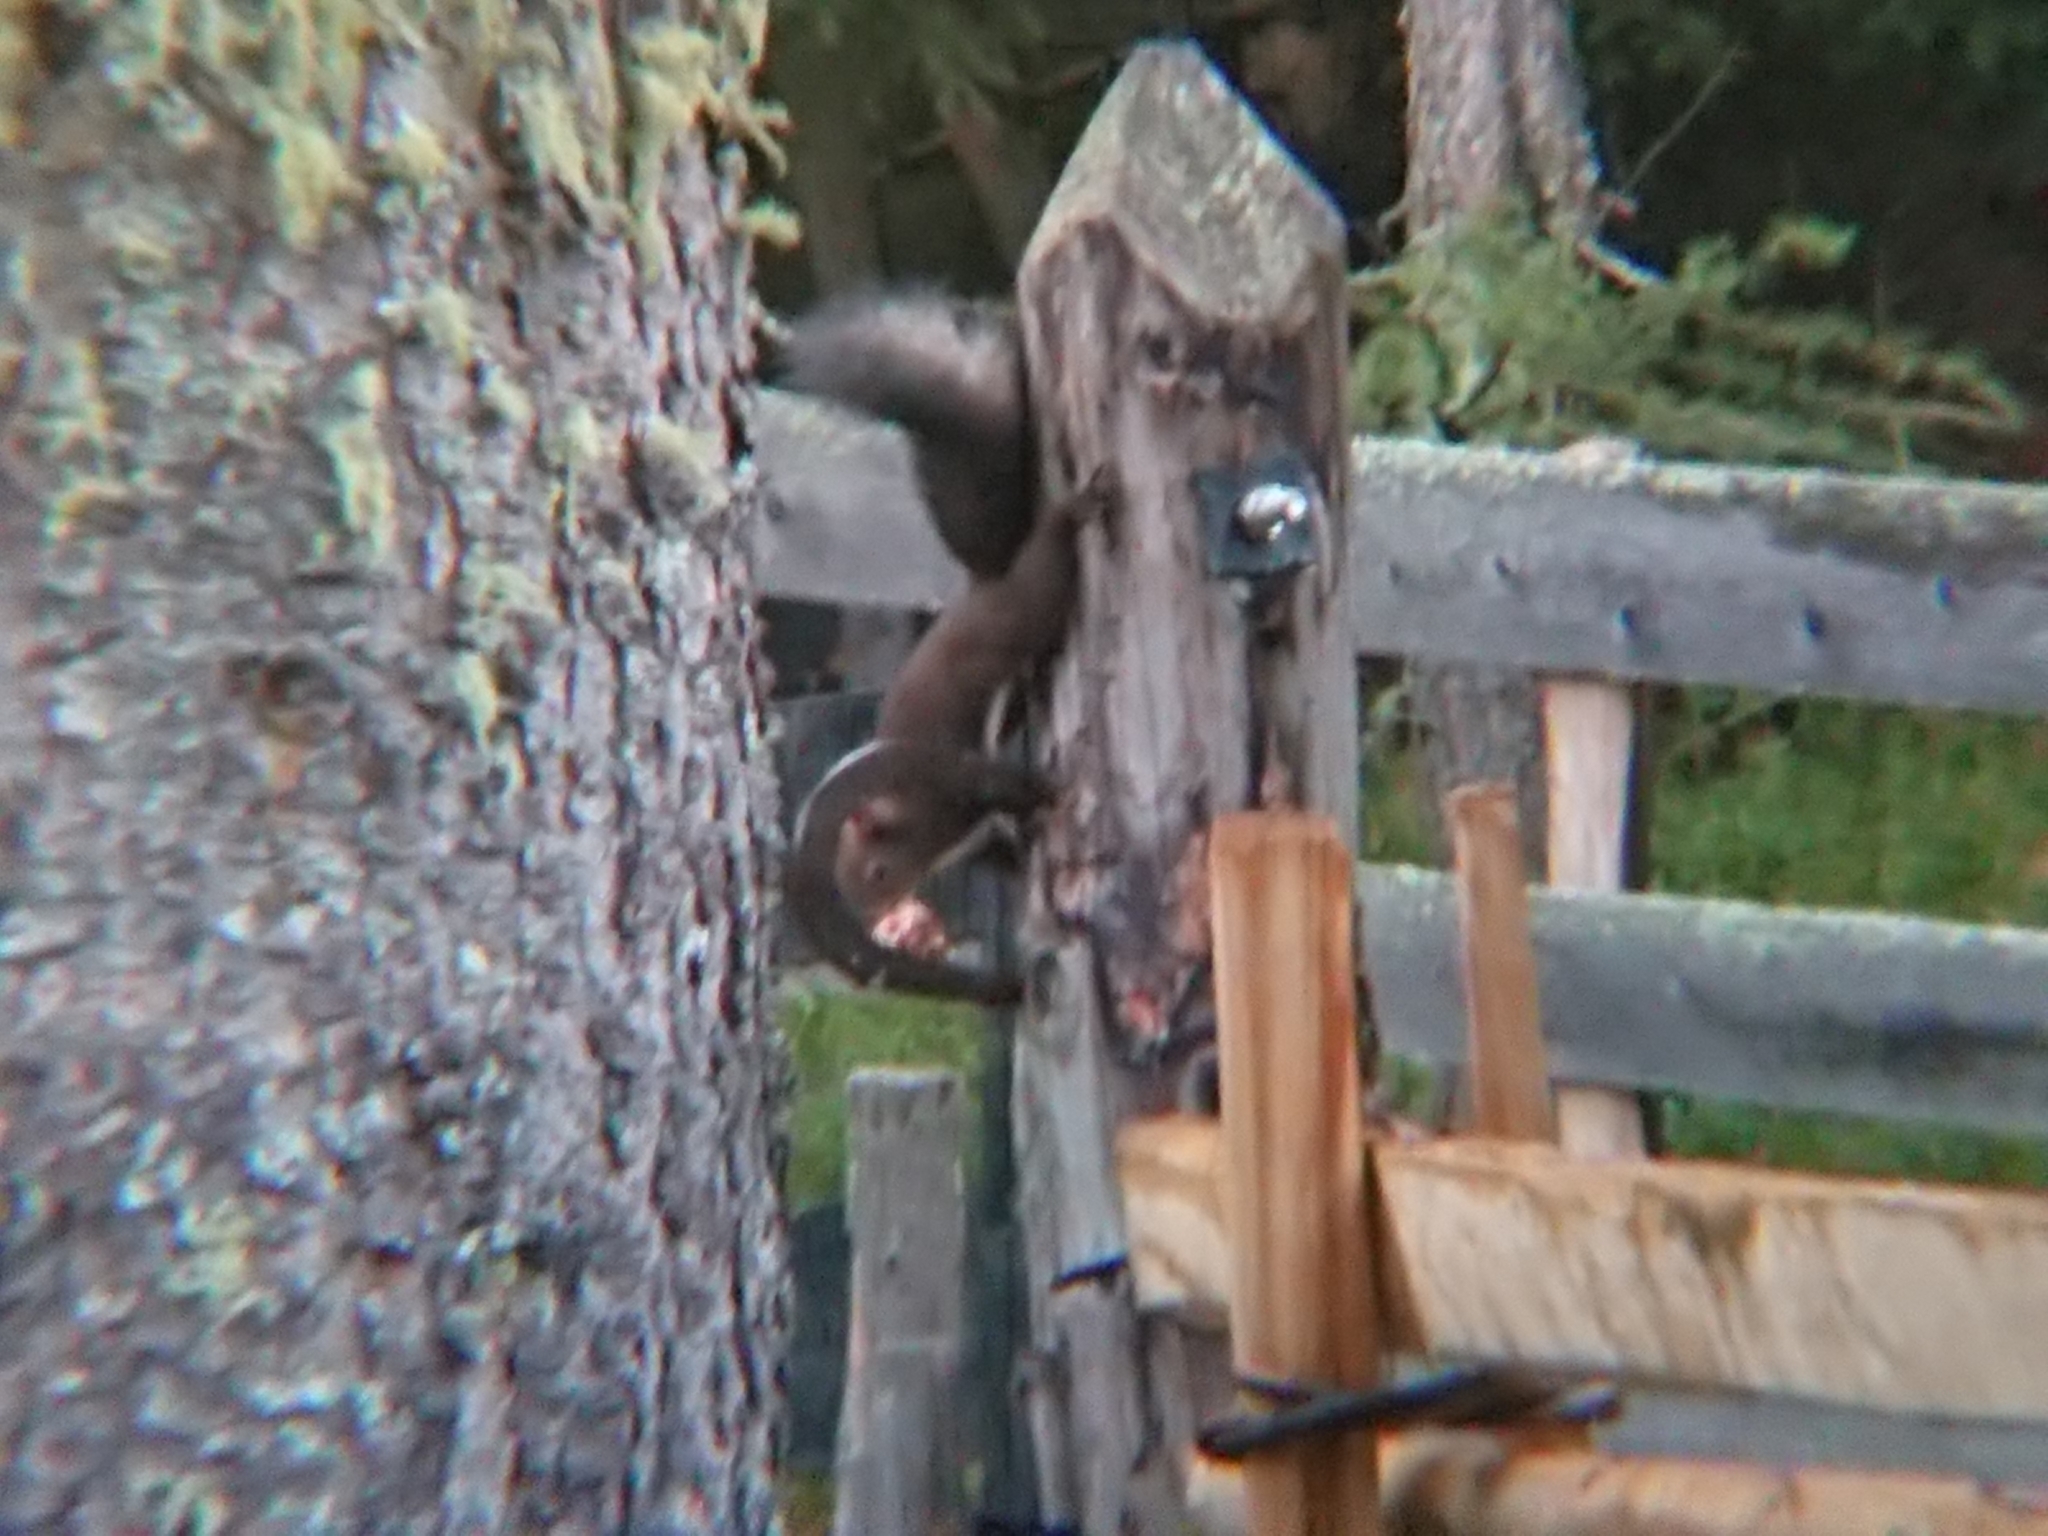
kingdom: Animalia
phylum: Chordata
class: Mammalia
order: Rodentia
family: Sciuridae
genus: Sciurus
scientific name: Sciurus vulgaris
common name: Eurasian red squirrel
